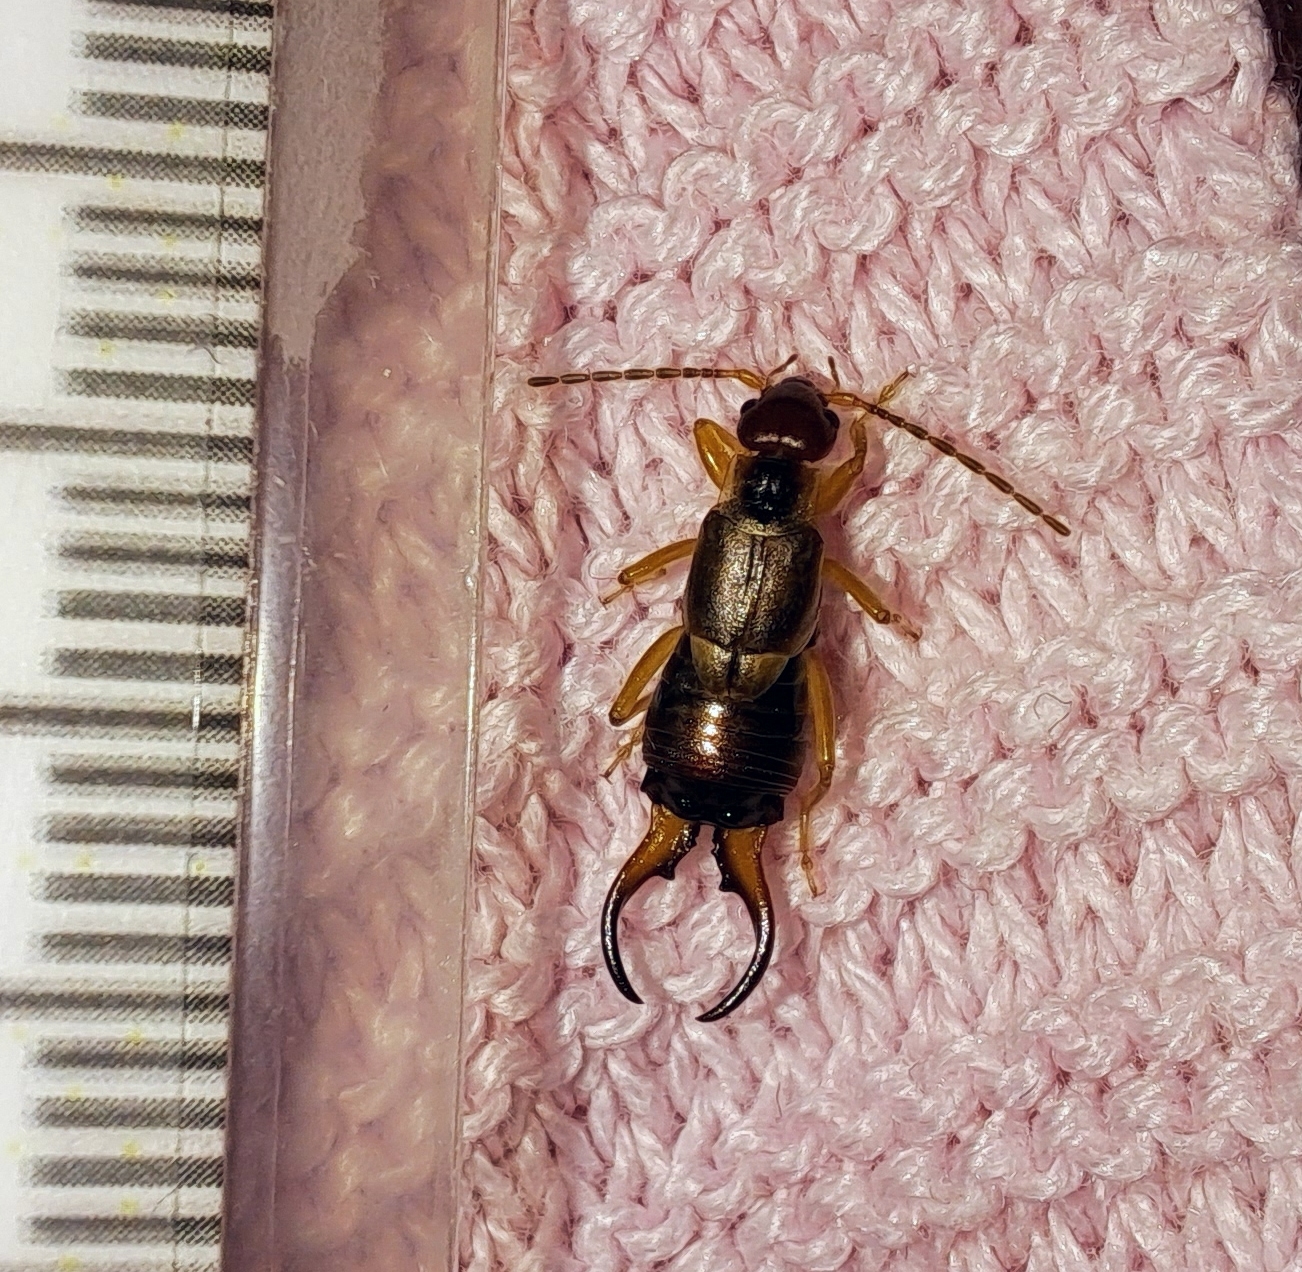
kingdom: Animalia
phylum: Arthropoda
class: Insecta
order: Dermaptera
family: Forficulidae
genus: Forficula
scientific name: Forficula auricularia
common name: European earwig
